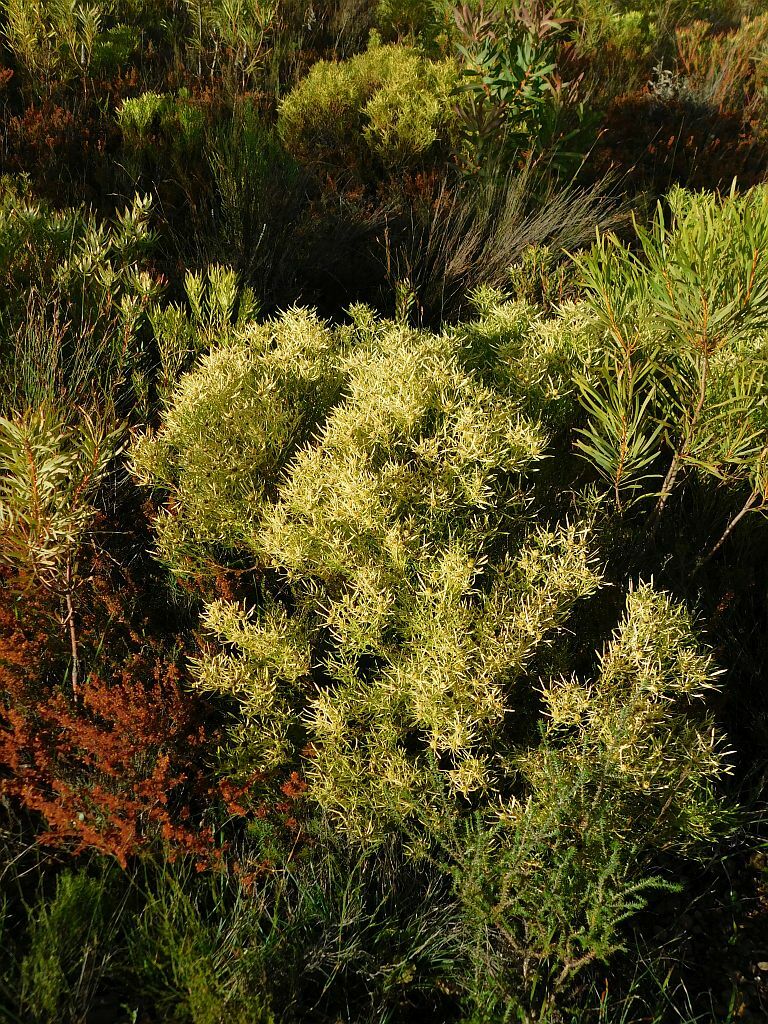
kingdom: Plantae
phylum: Tracheophyta
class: Magnoliopsida
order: Proteales
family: Proteaceae
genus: Leucadendron
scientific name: Leucadendron salignum
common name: Common sunshine conebush
